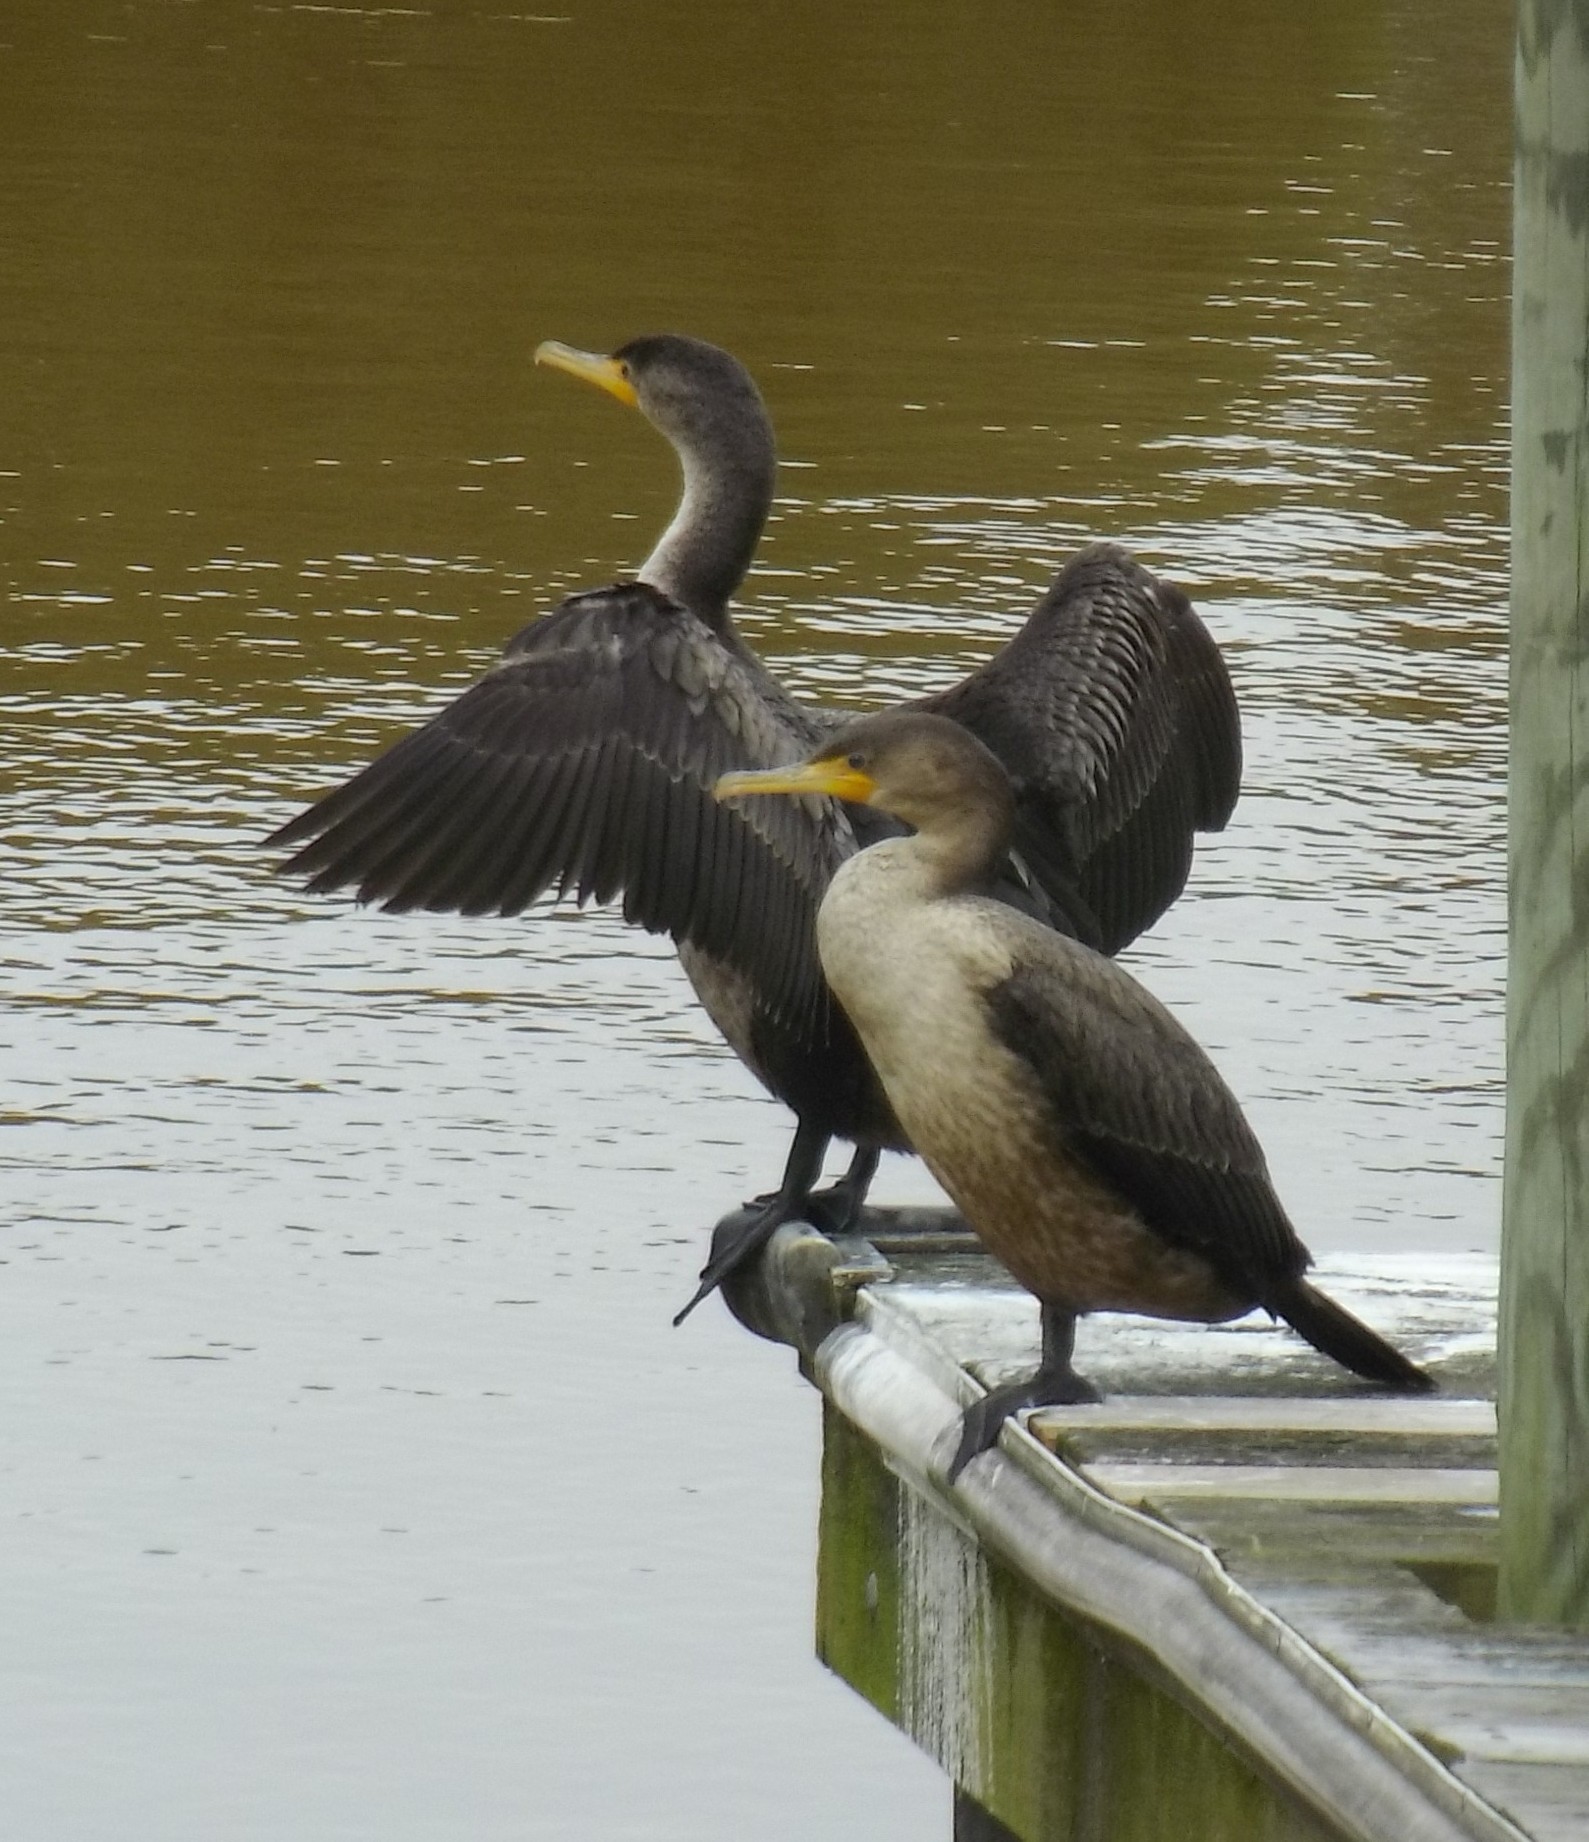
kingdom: Animalia
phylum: Chordata
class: Aves
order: Suliformes
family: Phalacrocoracidae
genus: Phalacrocorax
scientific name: Phalacrocorax auritus
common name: Double-crested cormorant
